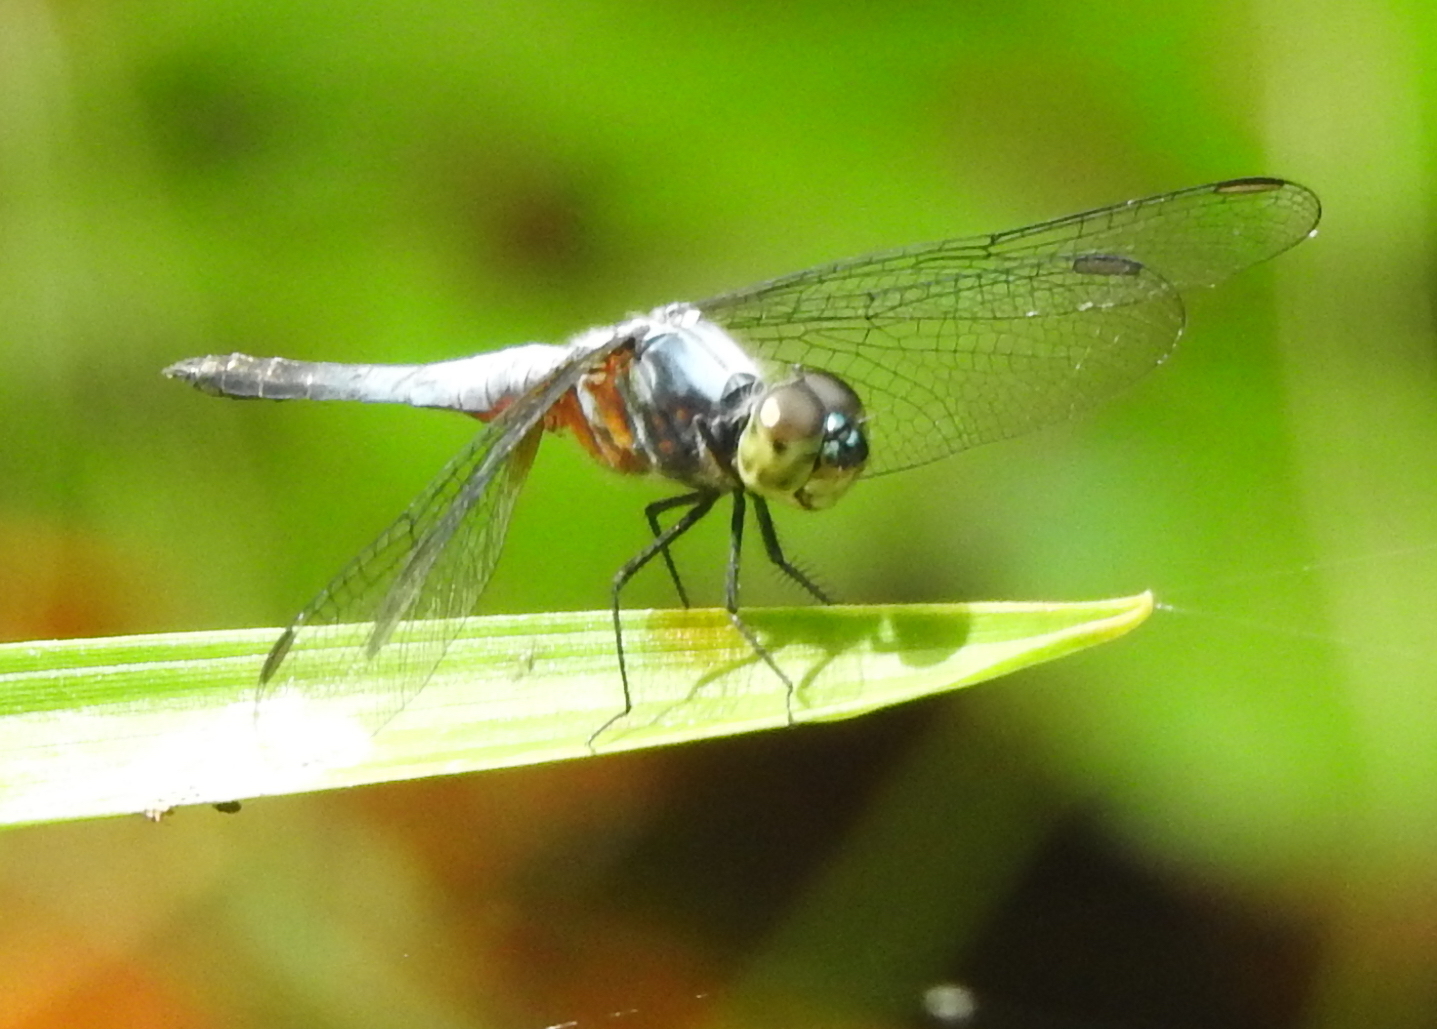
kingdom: Animalia
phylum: Arthropoda
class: Insecta
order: Odonata
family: Libellulidae
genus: Brachydiplax
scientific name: Brachydiplax chalybea
